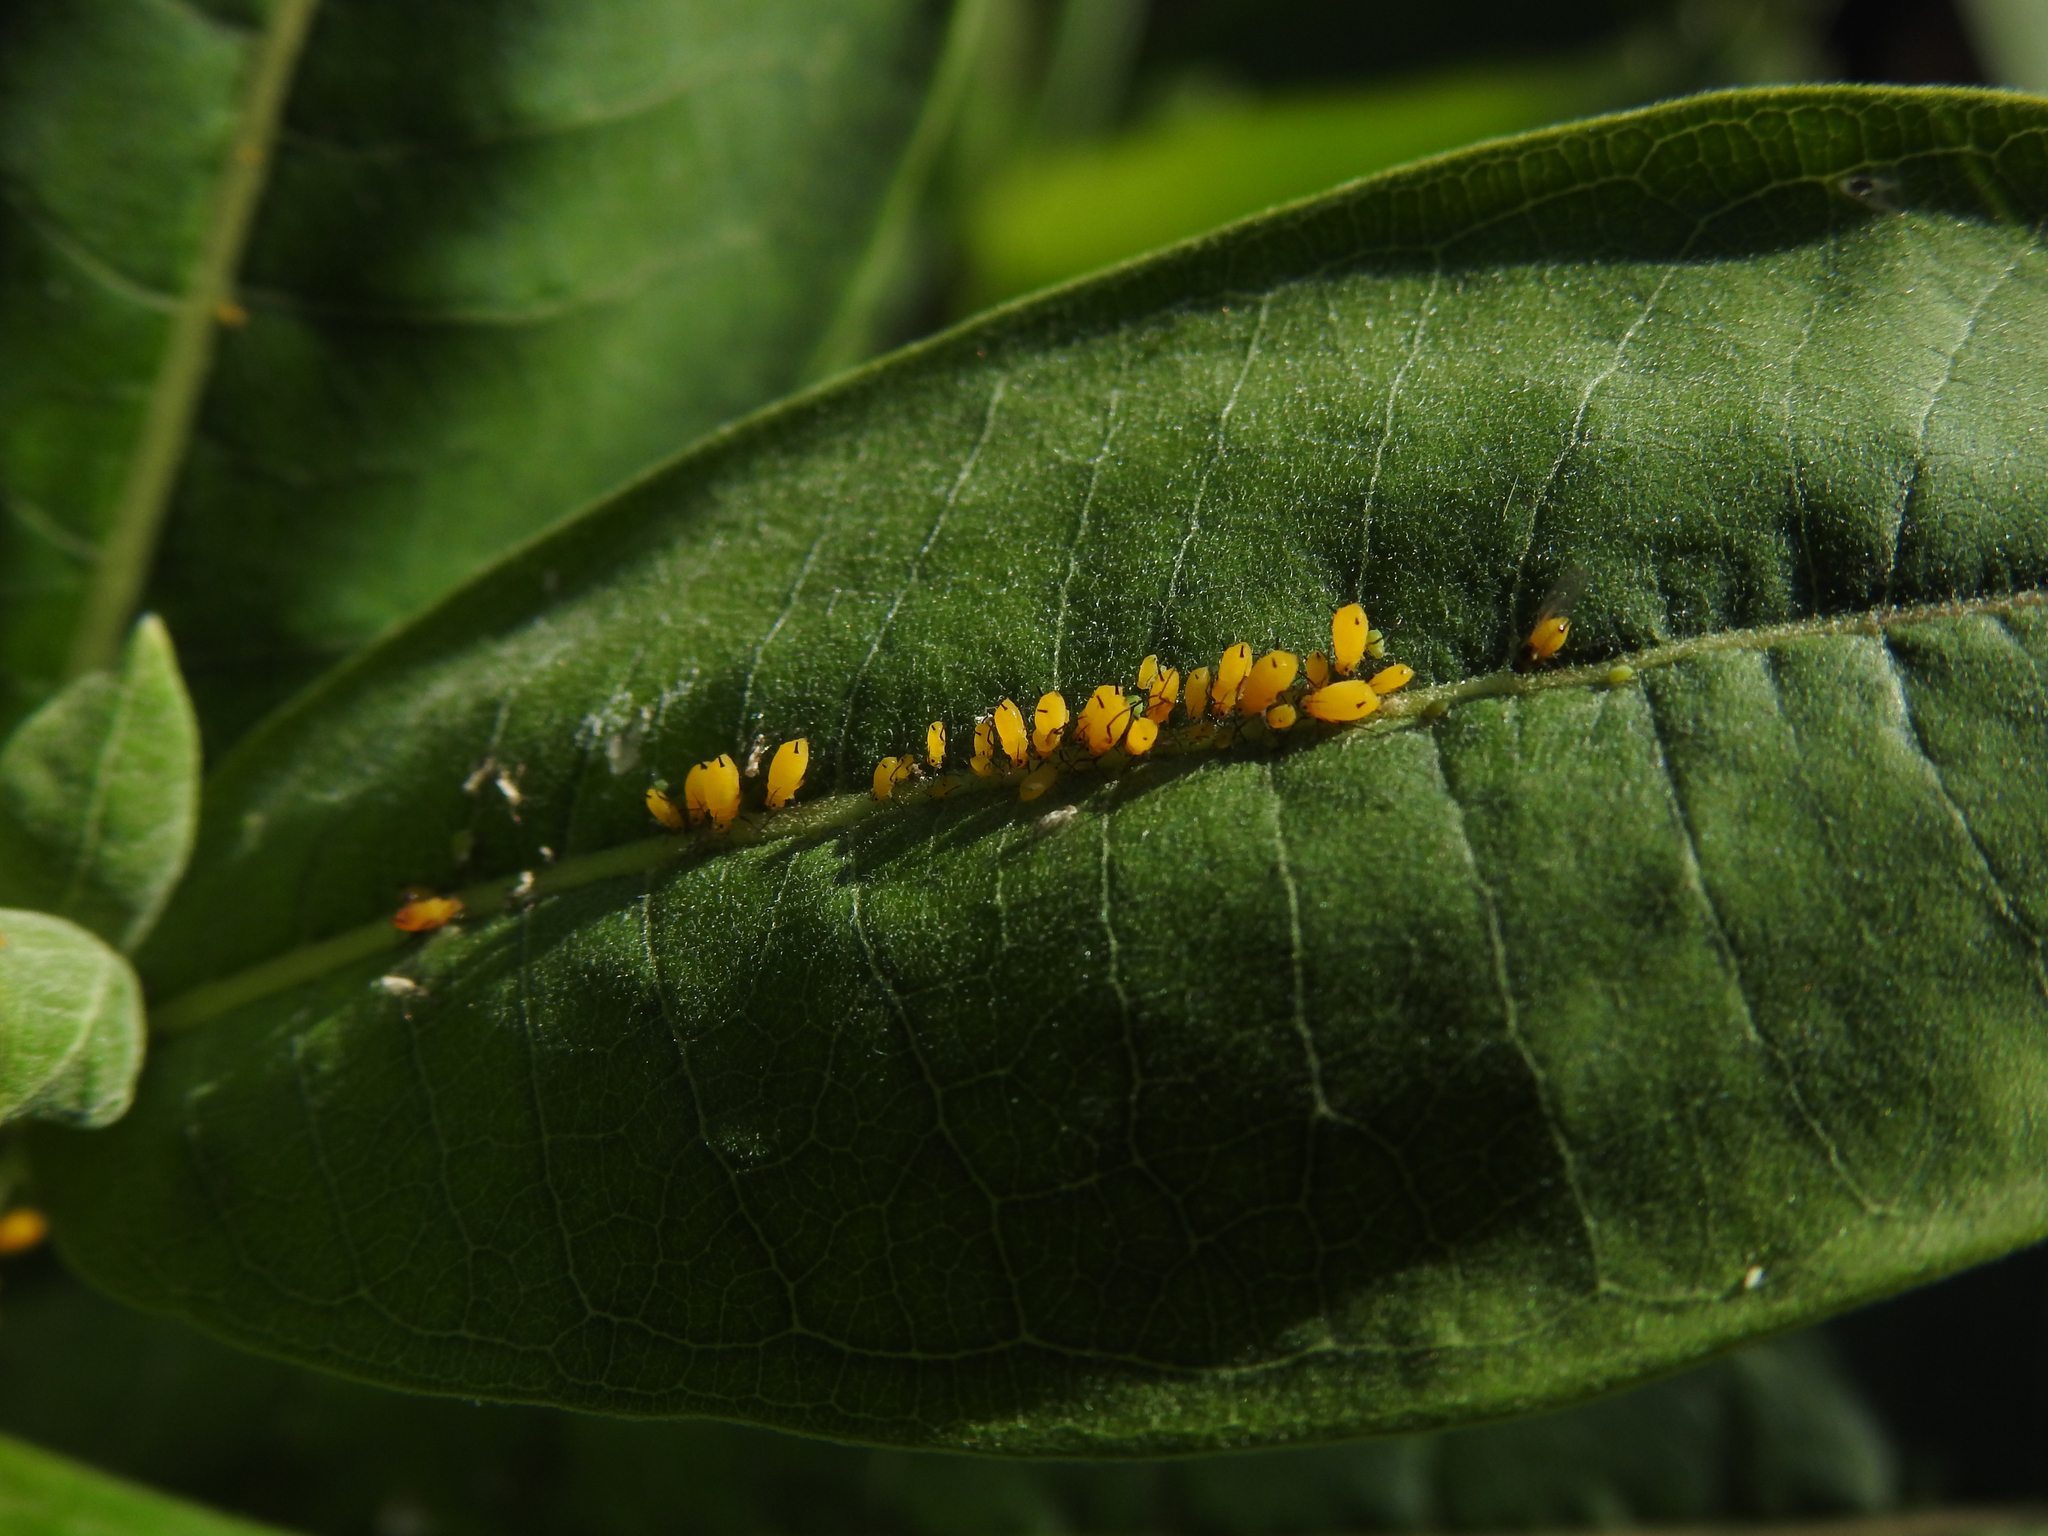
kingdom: Animalia
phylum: Arthropoda
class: Insecta
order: Hemiptera
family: Aphididae
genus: Aphis
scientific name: Aphis nerii
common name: Oleander aphid
